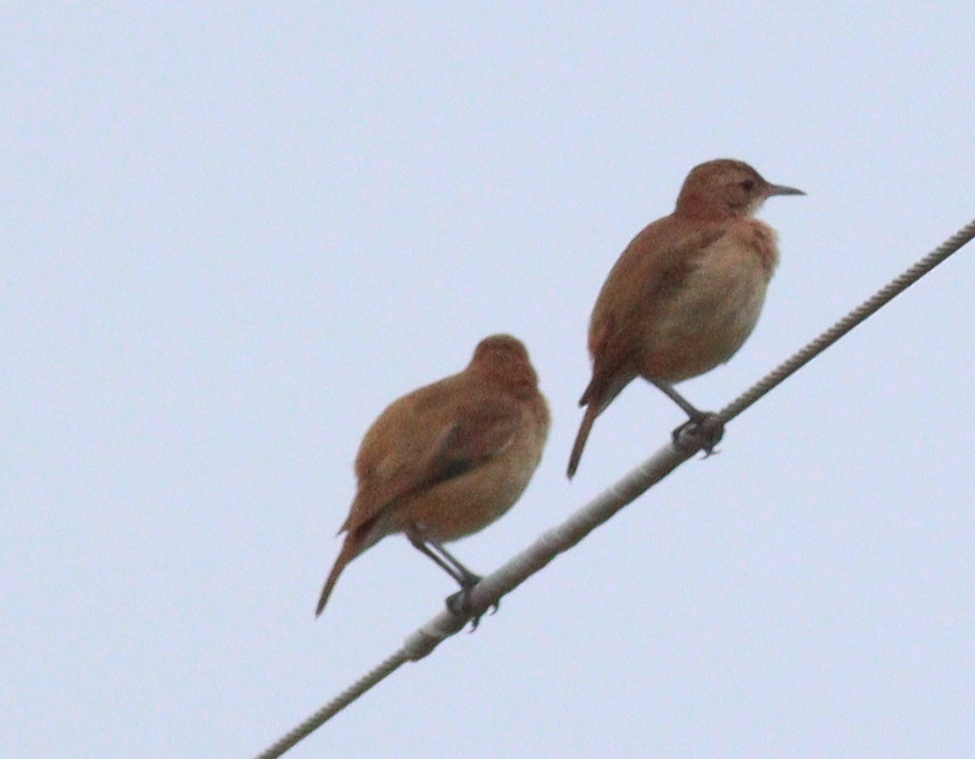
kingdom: Animalia
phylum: Chordata
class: Aves
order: Passeriformes
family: Furnariidae
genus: Furnarius
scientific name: Furnarius rufus
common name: Rufous hornero
